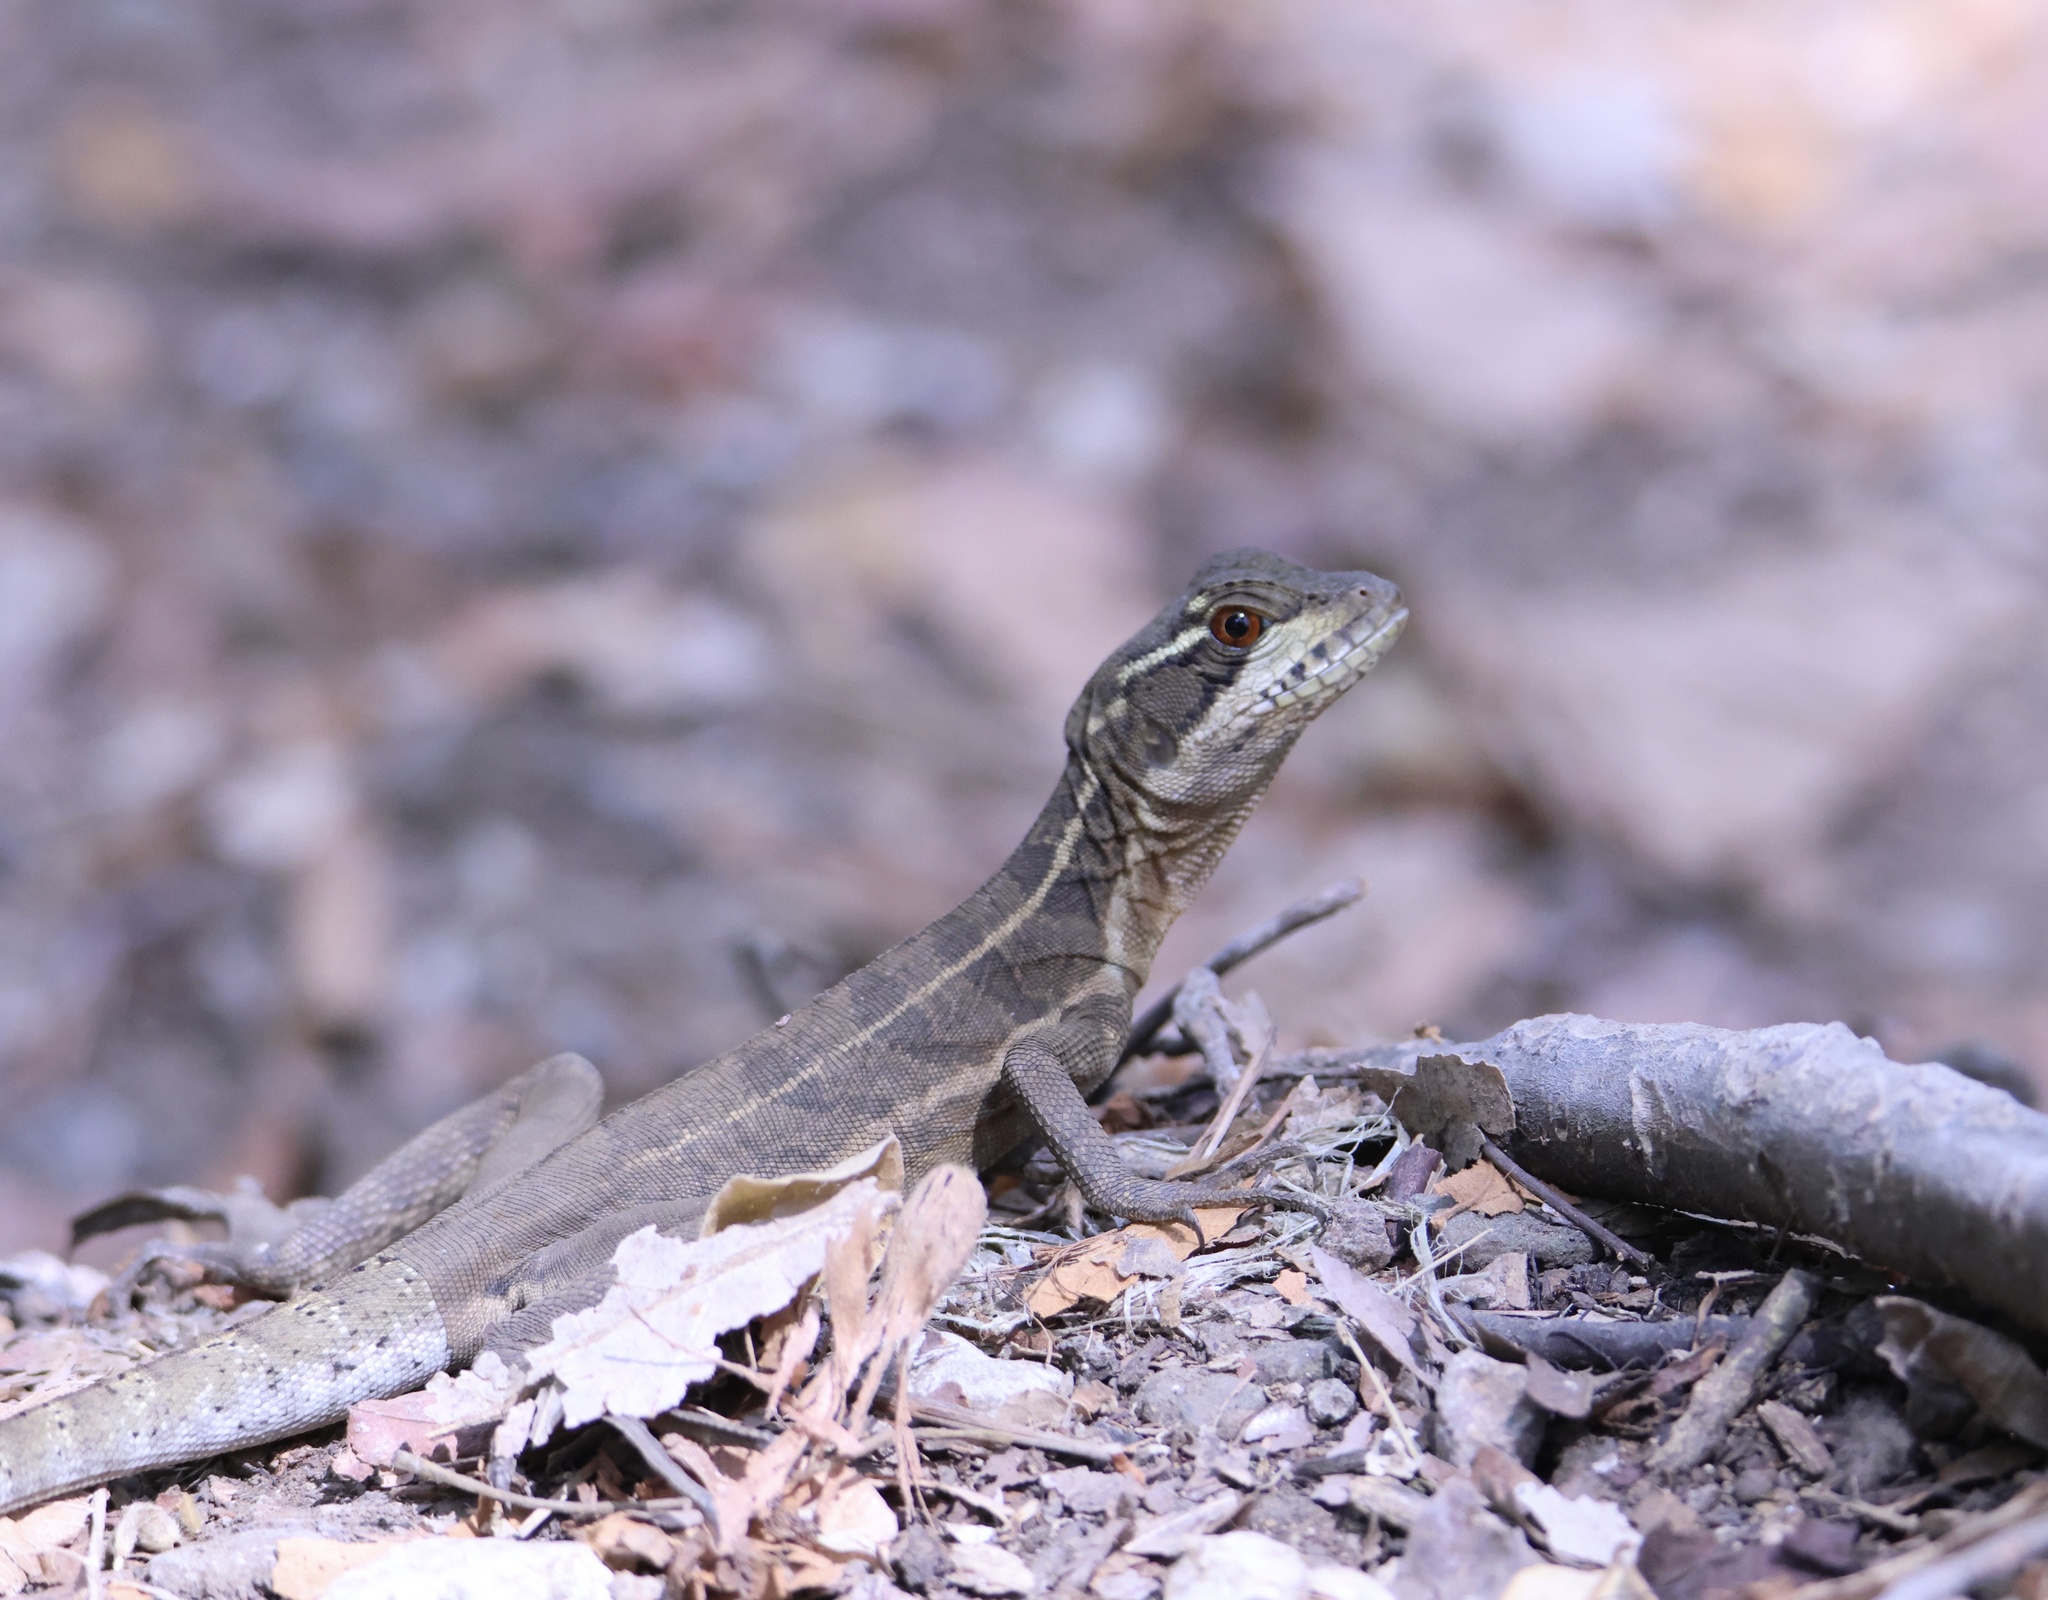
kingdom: Animalia
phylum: Chordata
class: Squamata
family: Corytophanidae
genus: Basiliscus
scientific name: Basiliscus basiliscus
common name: Common basilisk
